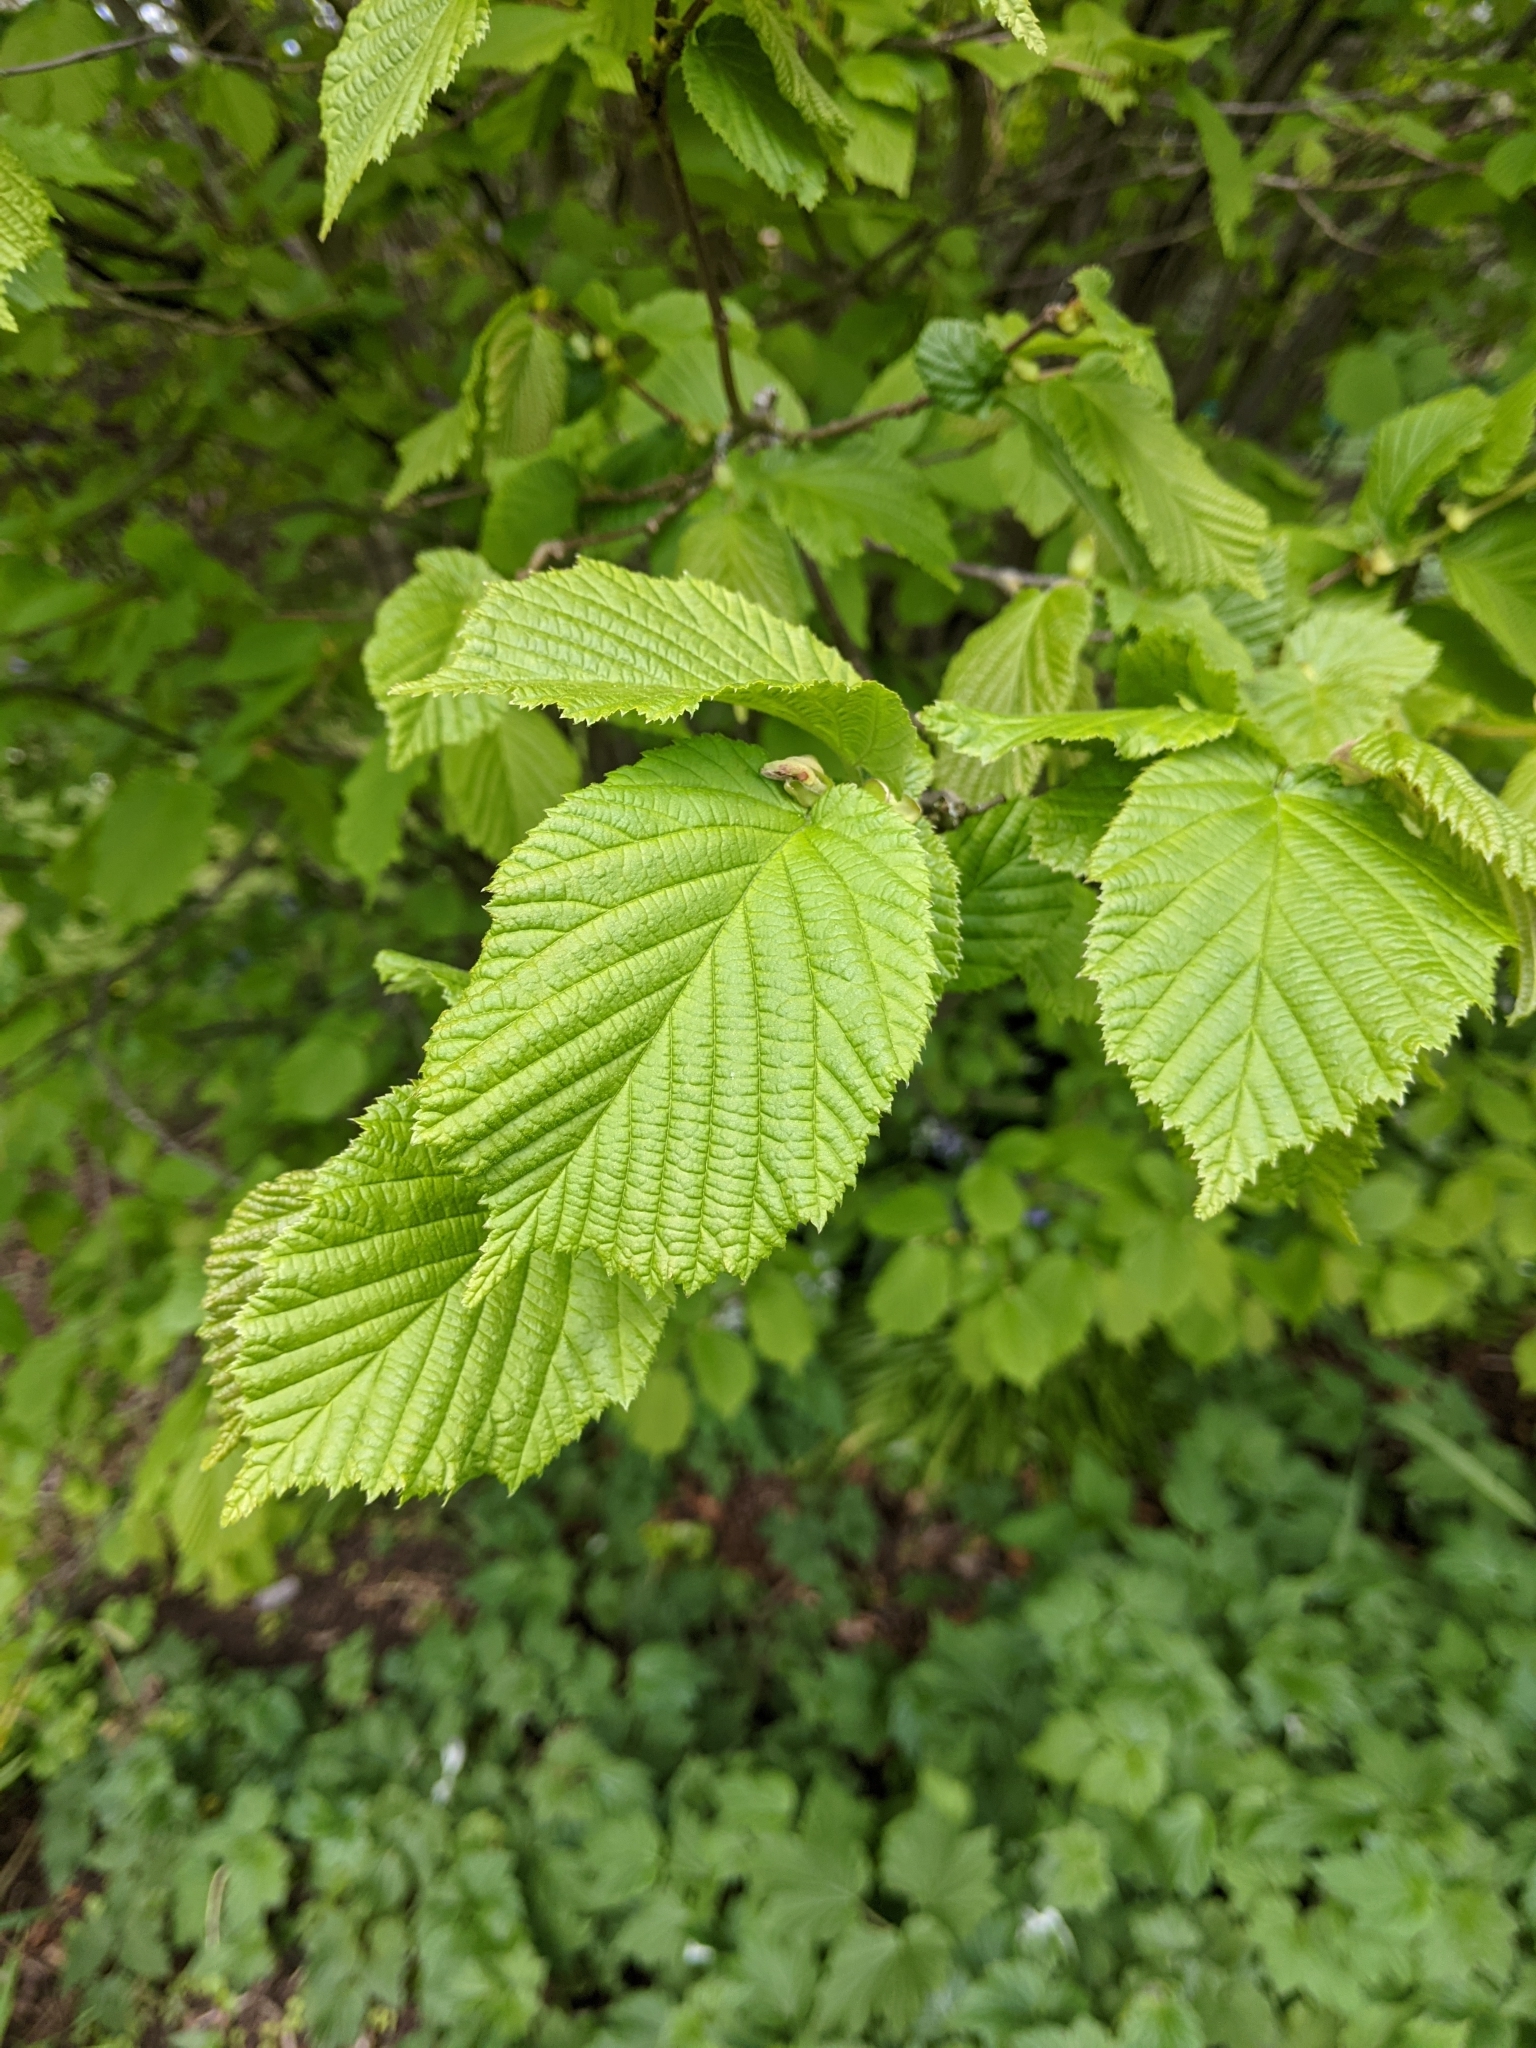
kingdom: Plantae
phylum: Tracheophyta
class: Magnoliopsida
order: Fagales
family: Betulaceae
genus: Corylus
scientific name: Corylus avellana
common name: European hazel
